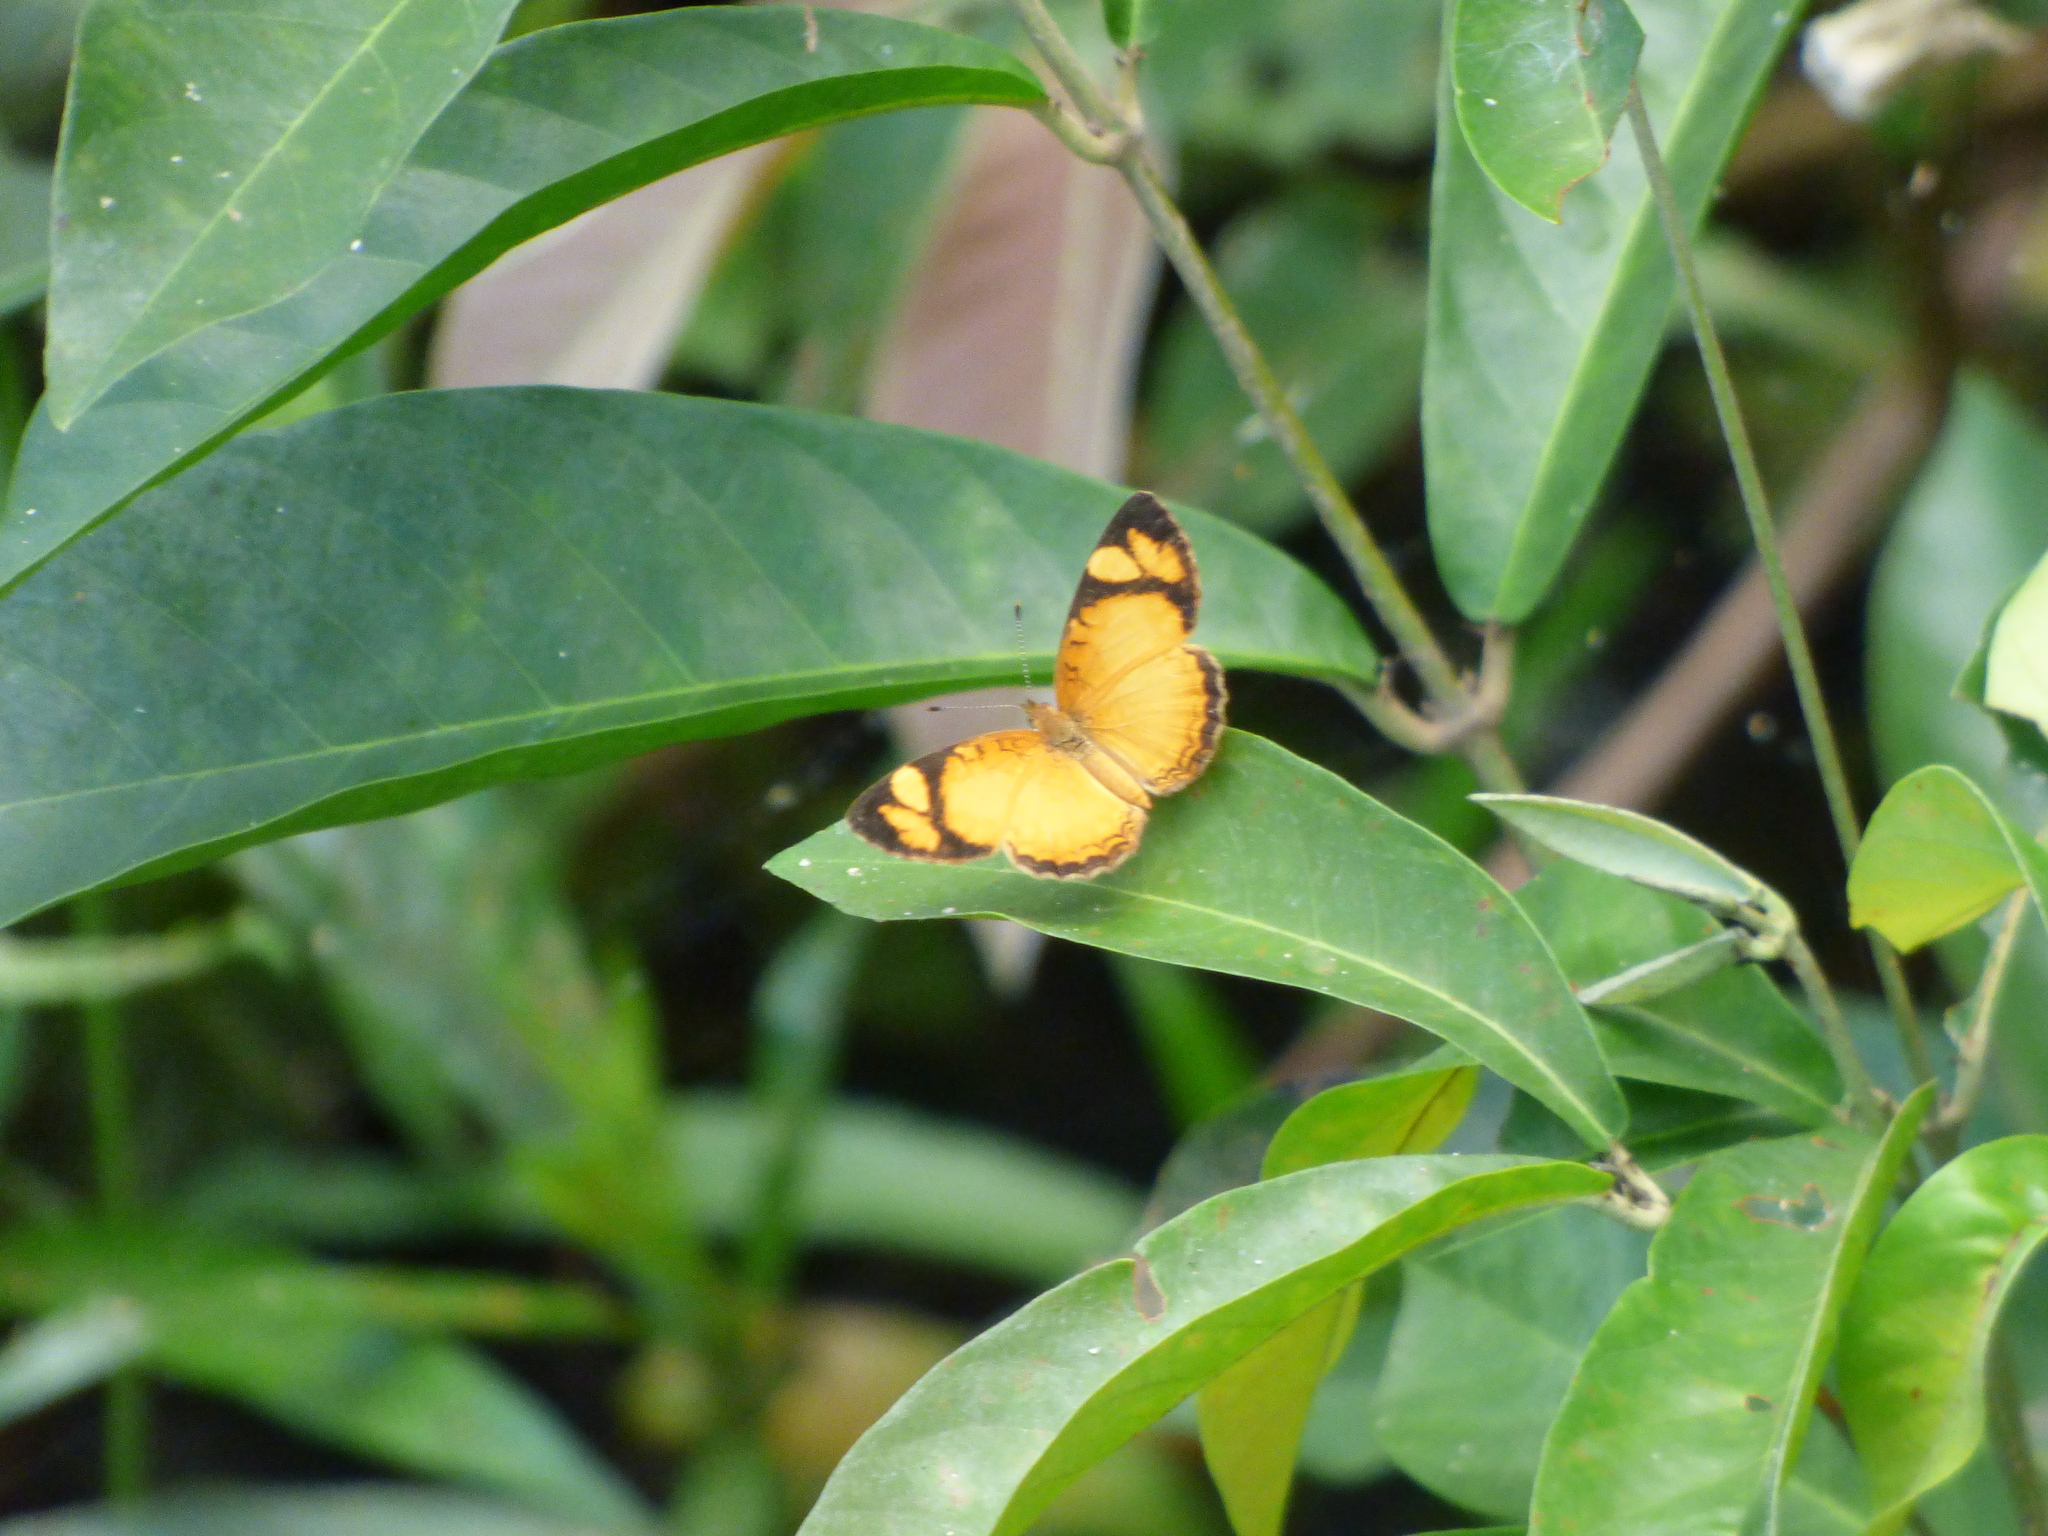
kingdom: Animalia
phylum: Arthropoda
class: Insecta
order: Lepidoptera
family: Nymphalidae
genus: Tegosa
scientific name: Tegosa claudina
